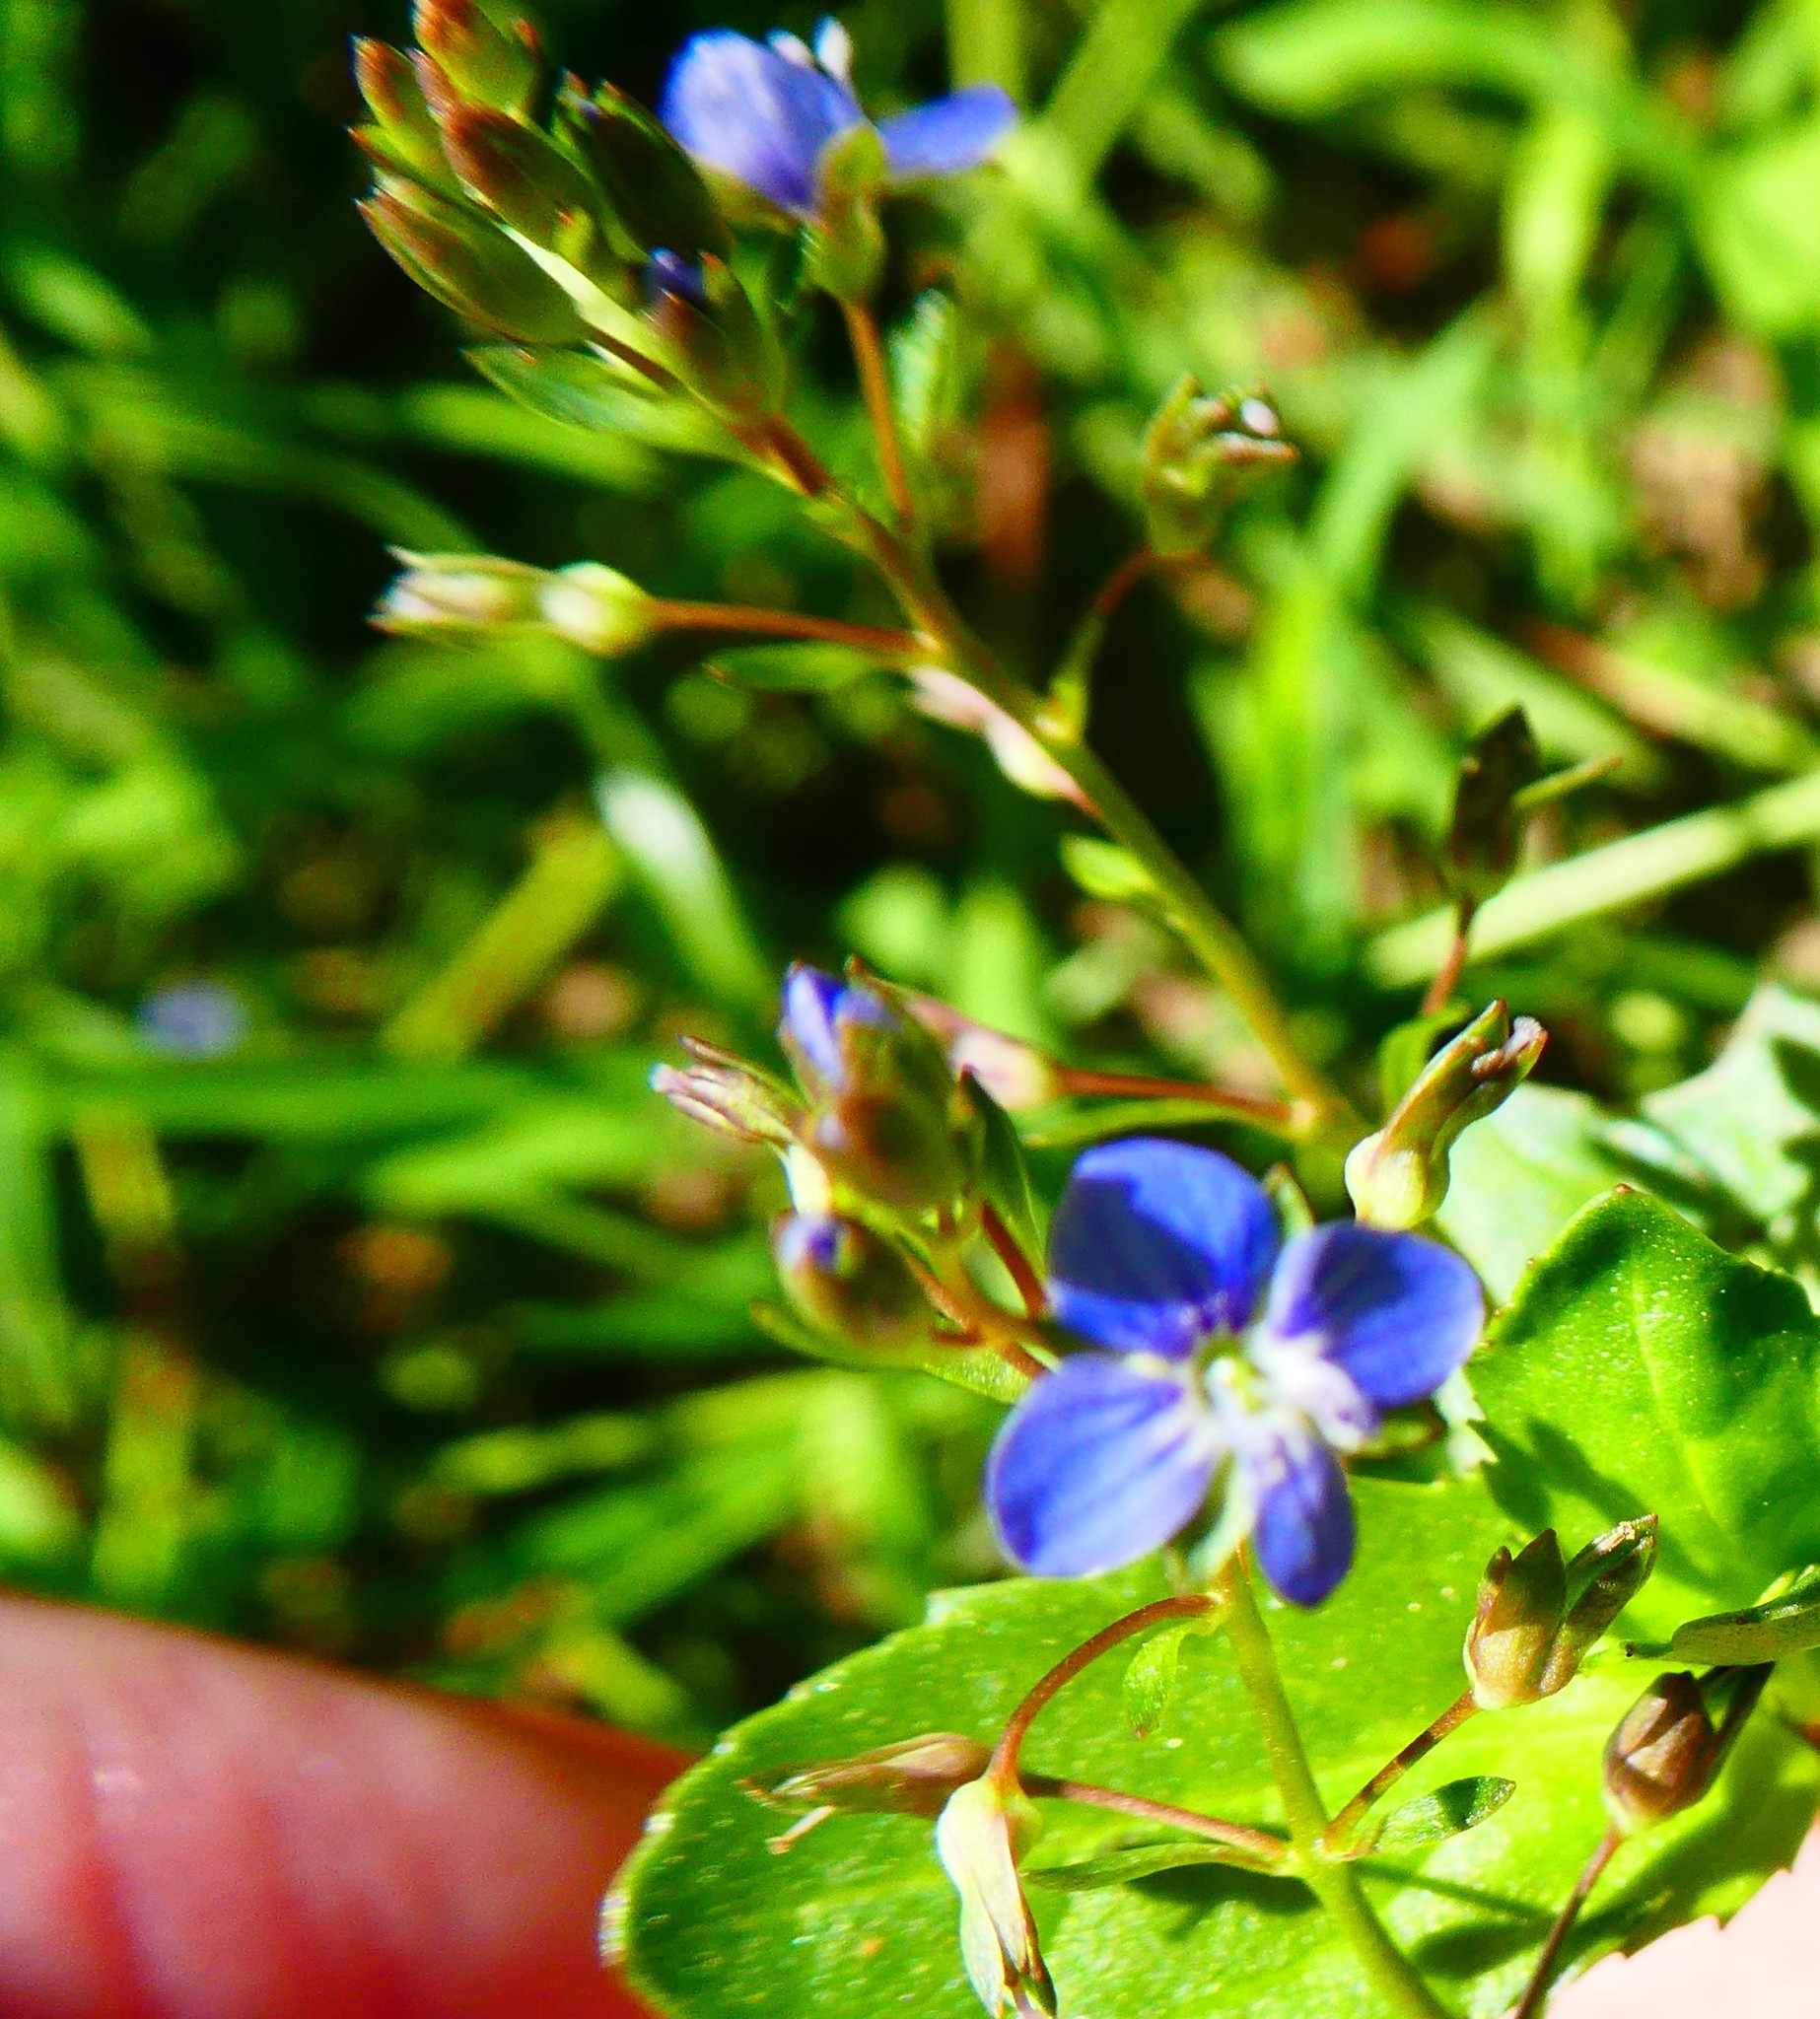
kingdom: Plantae
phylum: Tracheophyta
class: Magnoliopsida
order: Lamiales
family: Plantaginaceae
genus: Veronica
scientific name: Veronica beccabunga
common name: Brooklime
